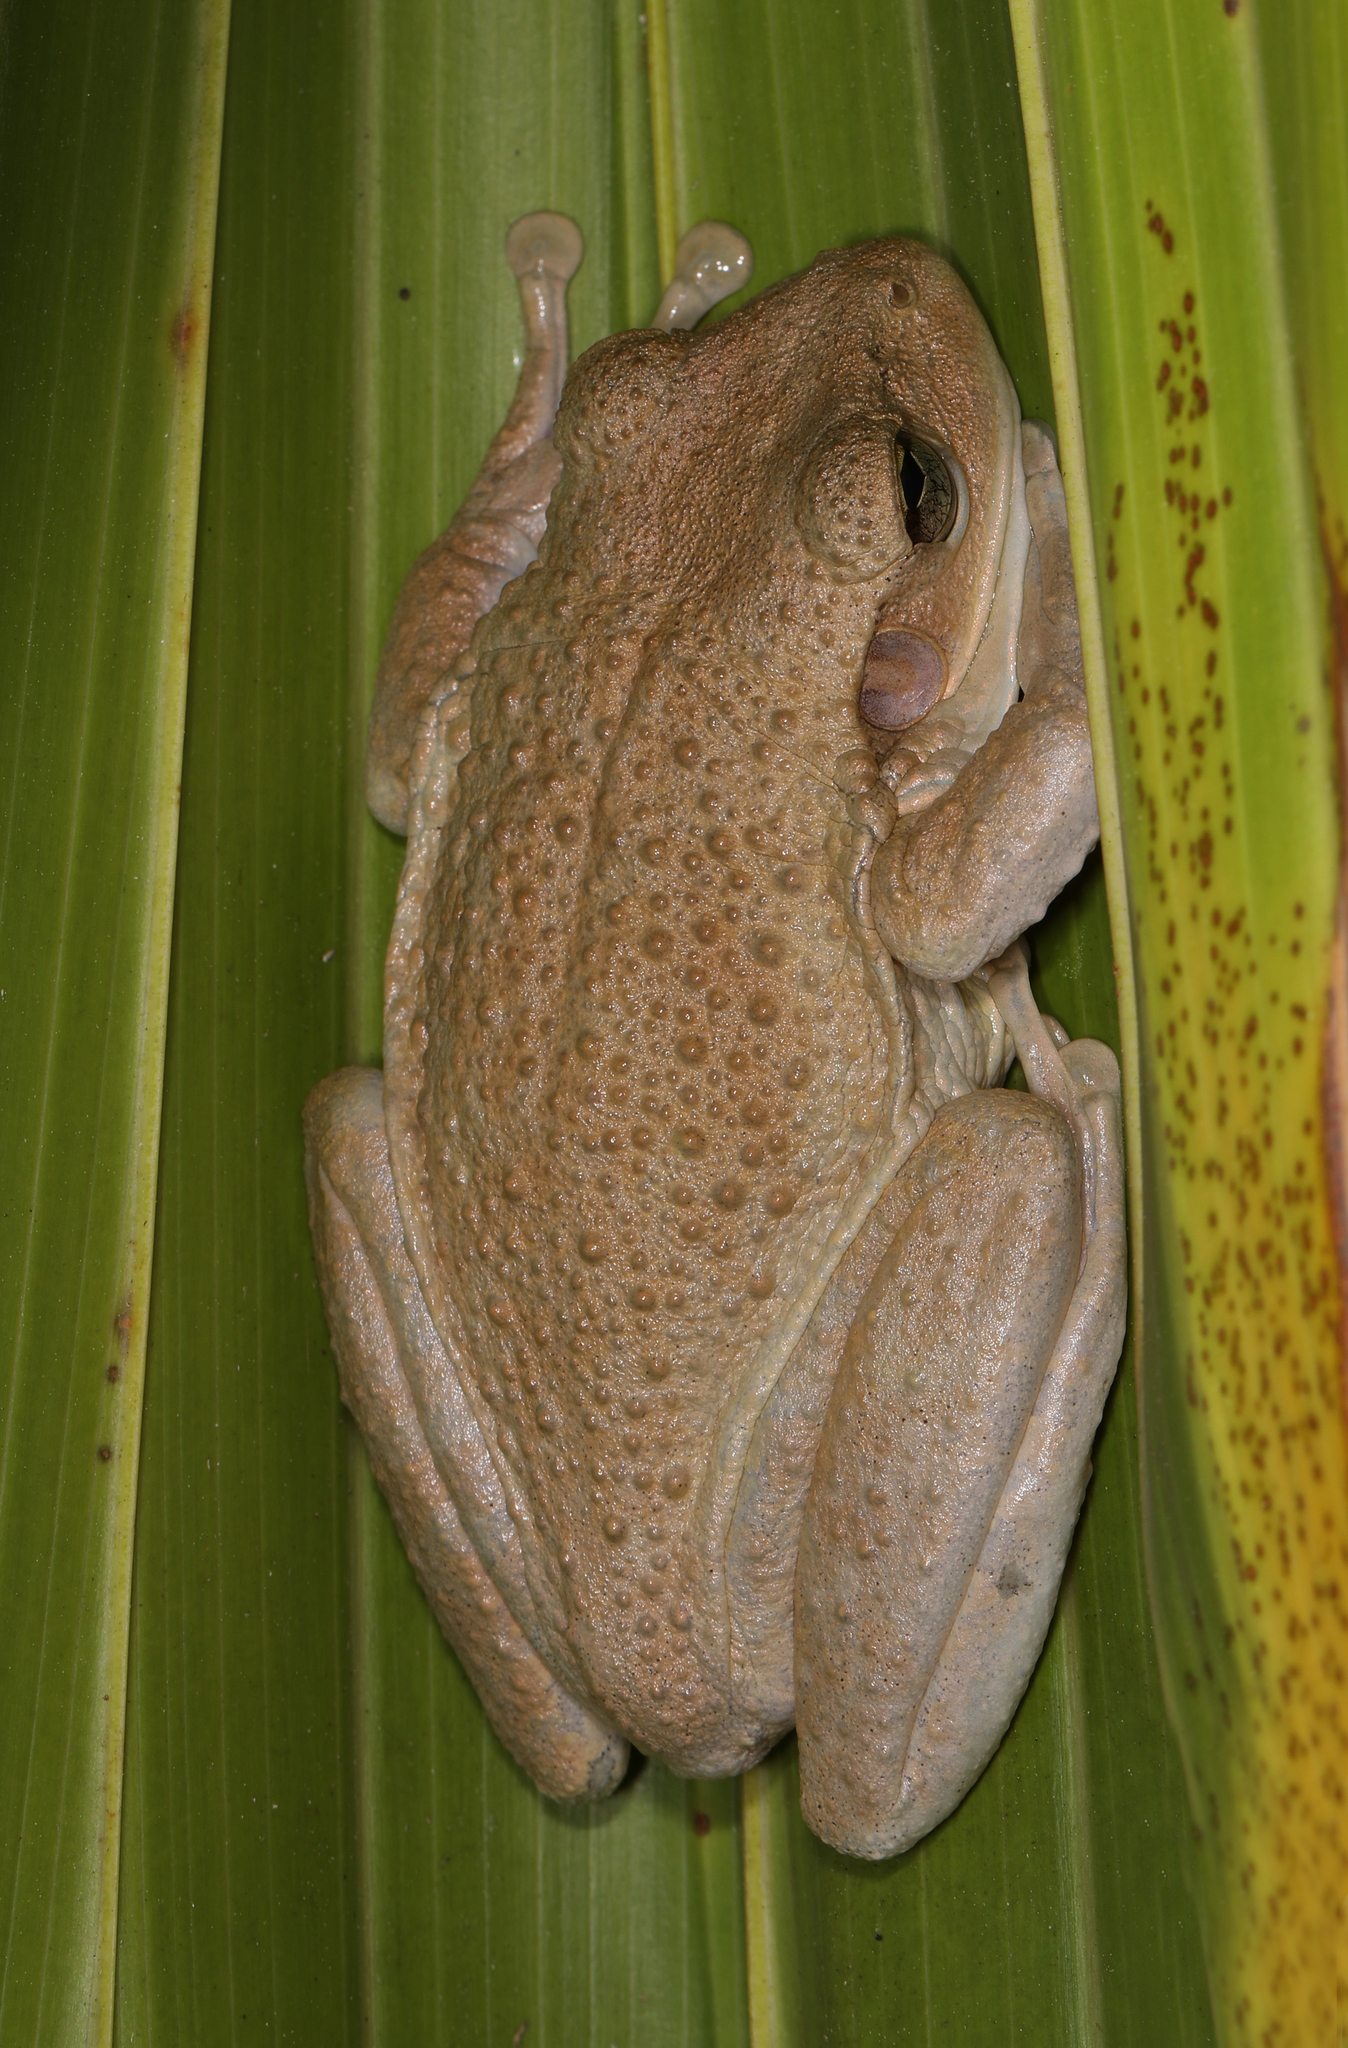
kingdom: Animalia
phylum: Chordata
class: Amphibia
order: Anura
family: Hylidae
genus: Osteopilus
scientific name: Osteopilus septentrionalis
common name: Cuban treefrog
